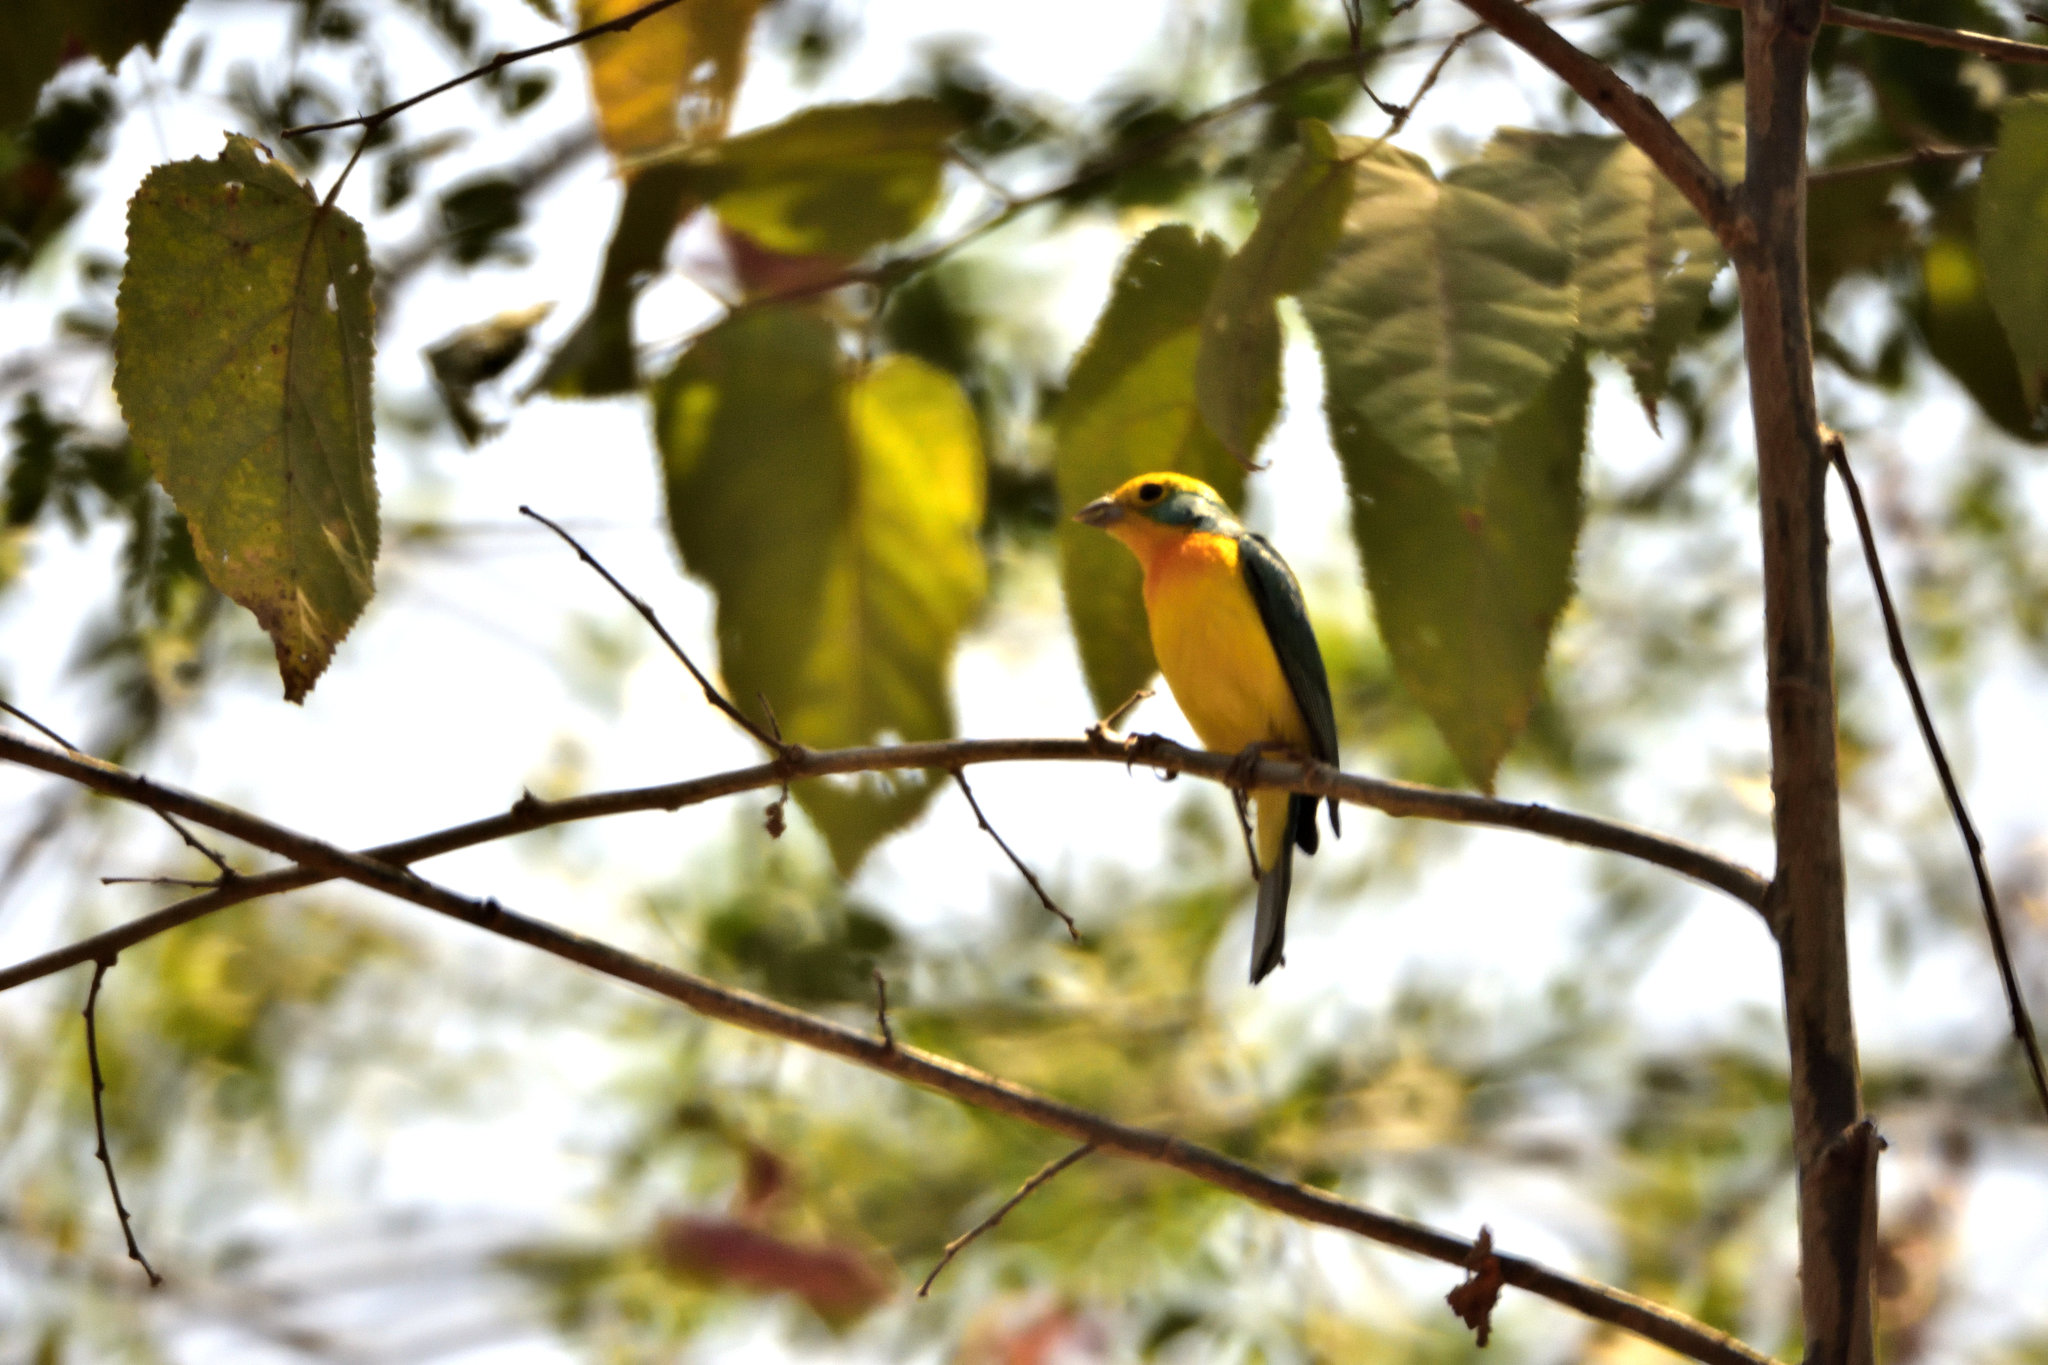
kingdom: Animalia
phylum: Chordata
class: Aves
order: Passeriformes
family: Cardinalidae
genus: Passerina
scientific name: Passerina leclancherii
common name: Orange-breasted bunting
